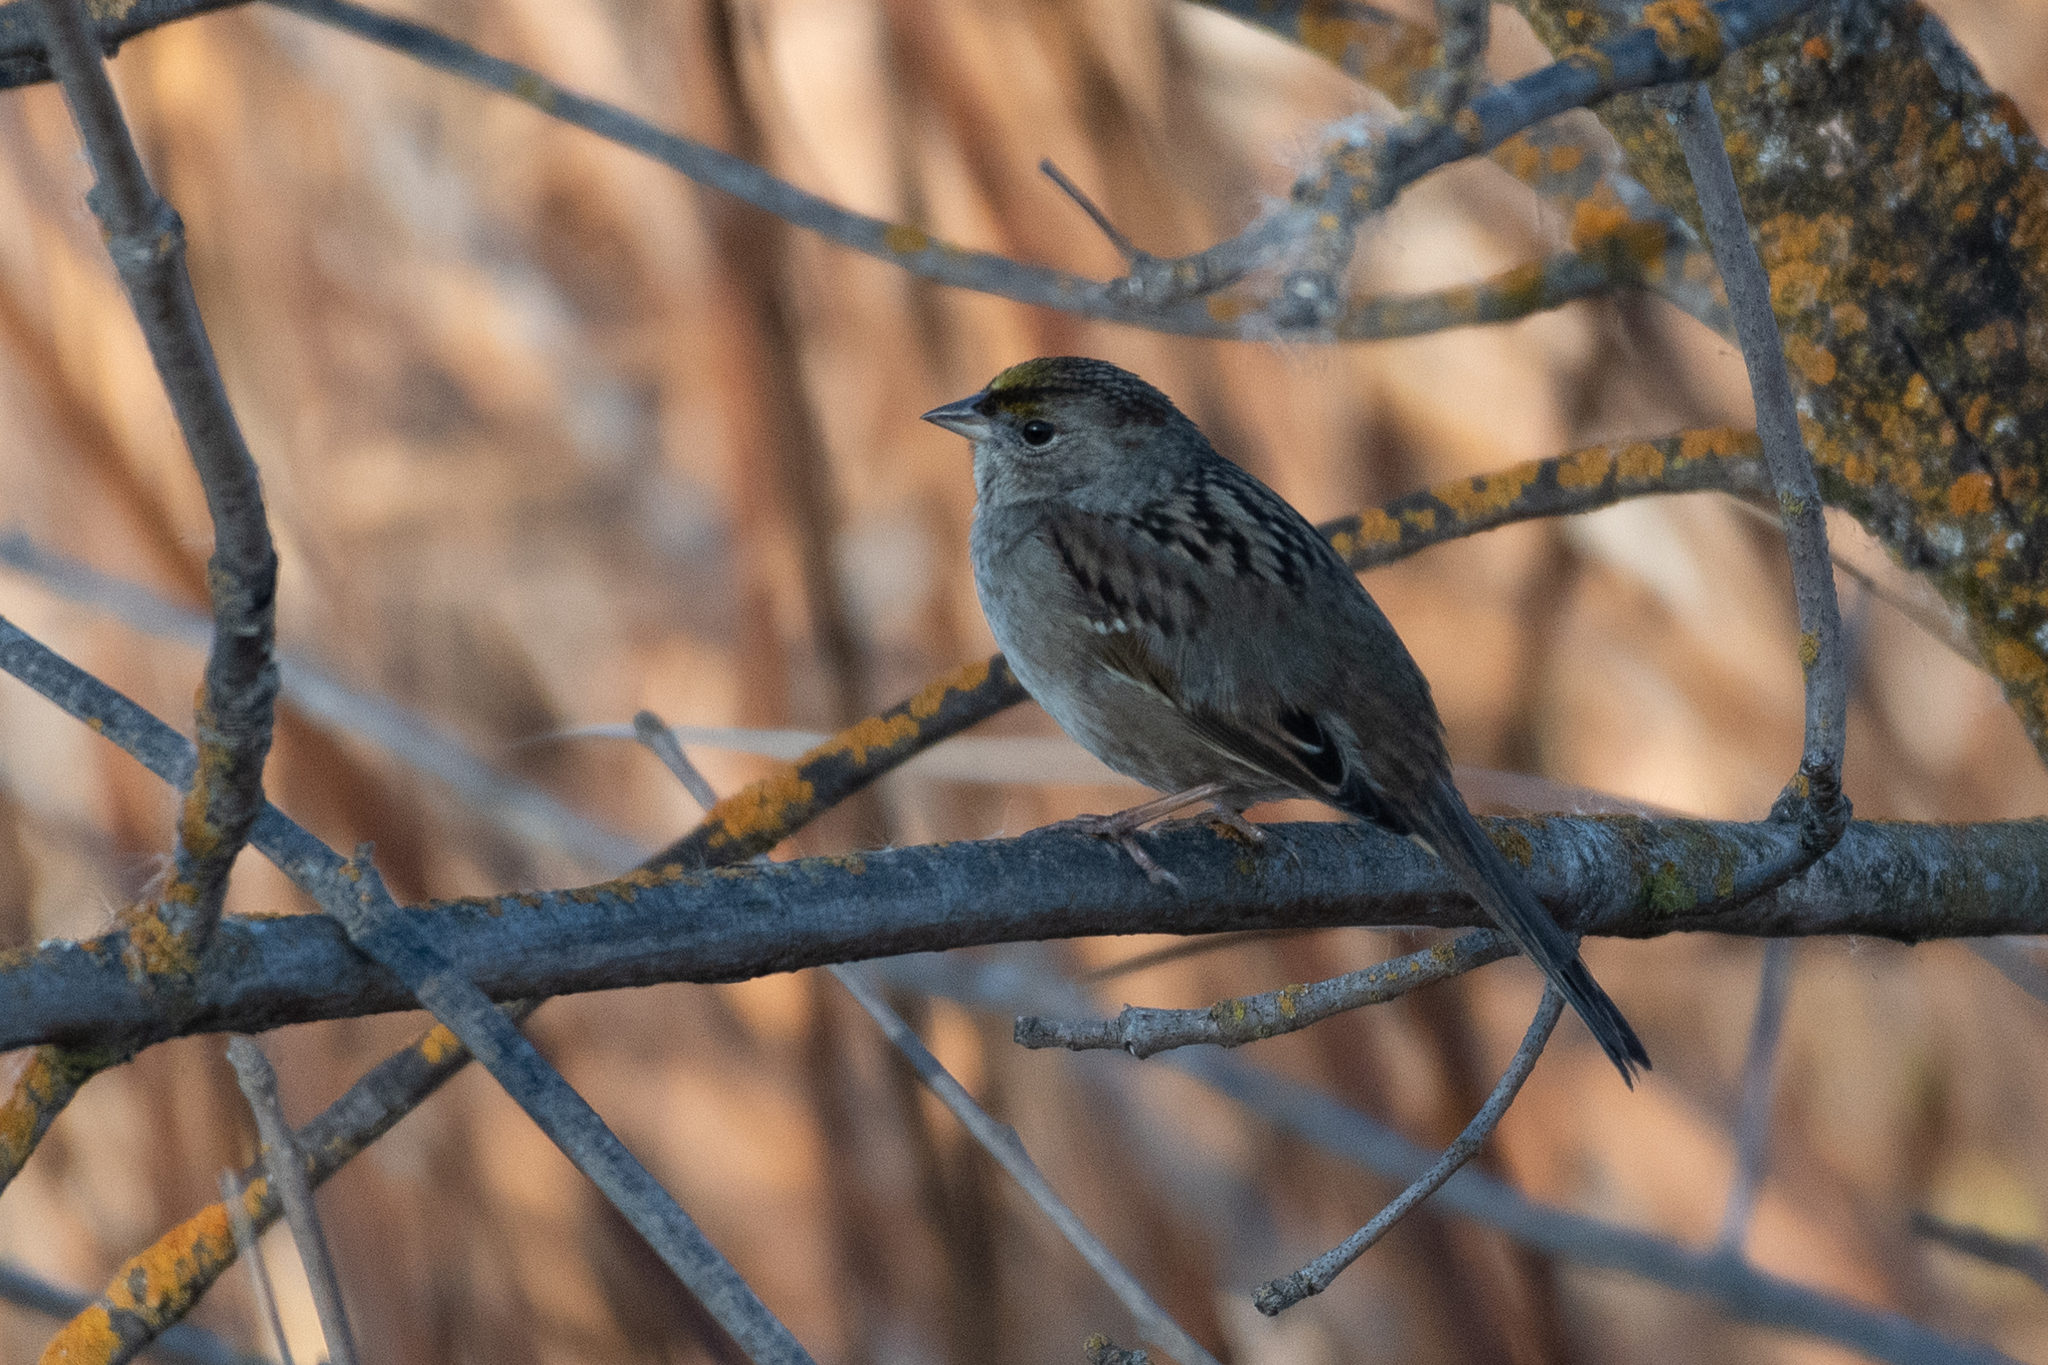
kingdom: Animalia
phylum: Chordata
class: Aves
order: Passeriformes
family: Passerellidae
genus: Zonotrichia
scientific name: Zonotrichia atricapilla
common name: Golden-crowned sparrow
